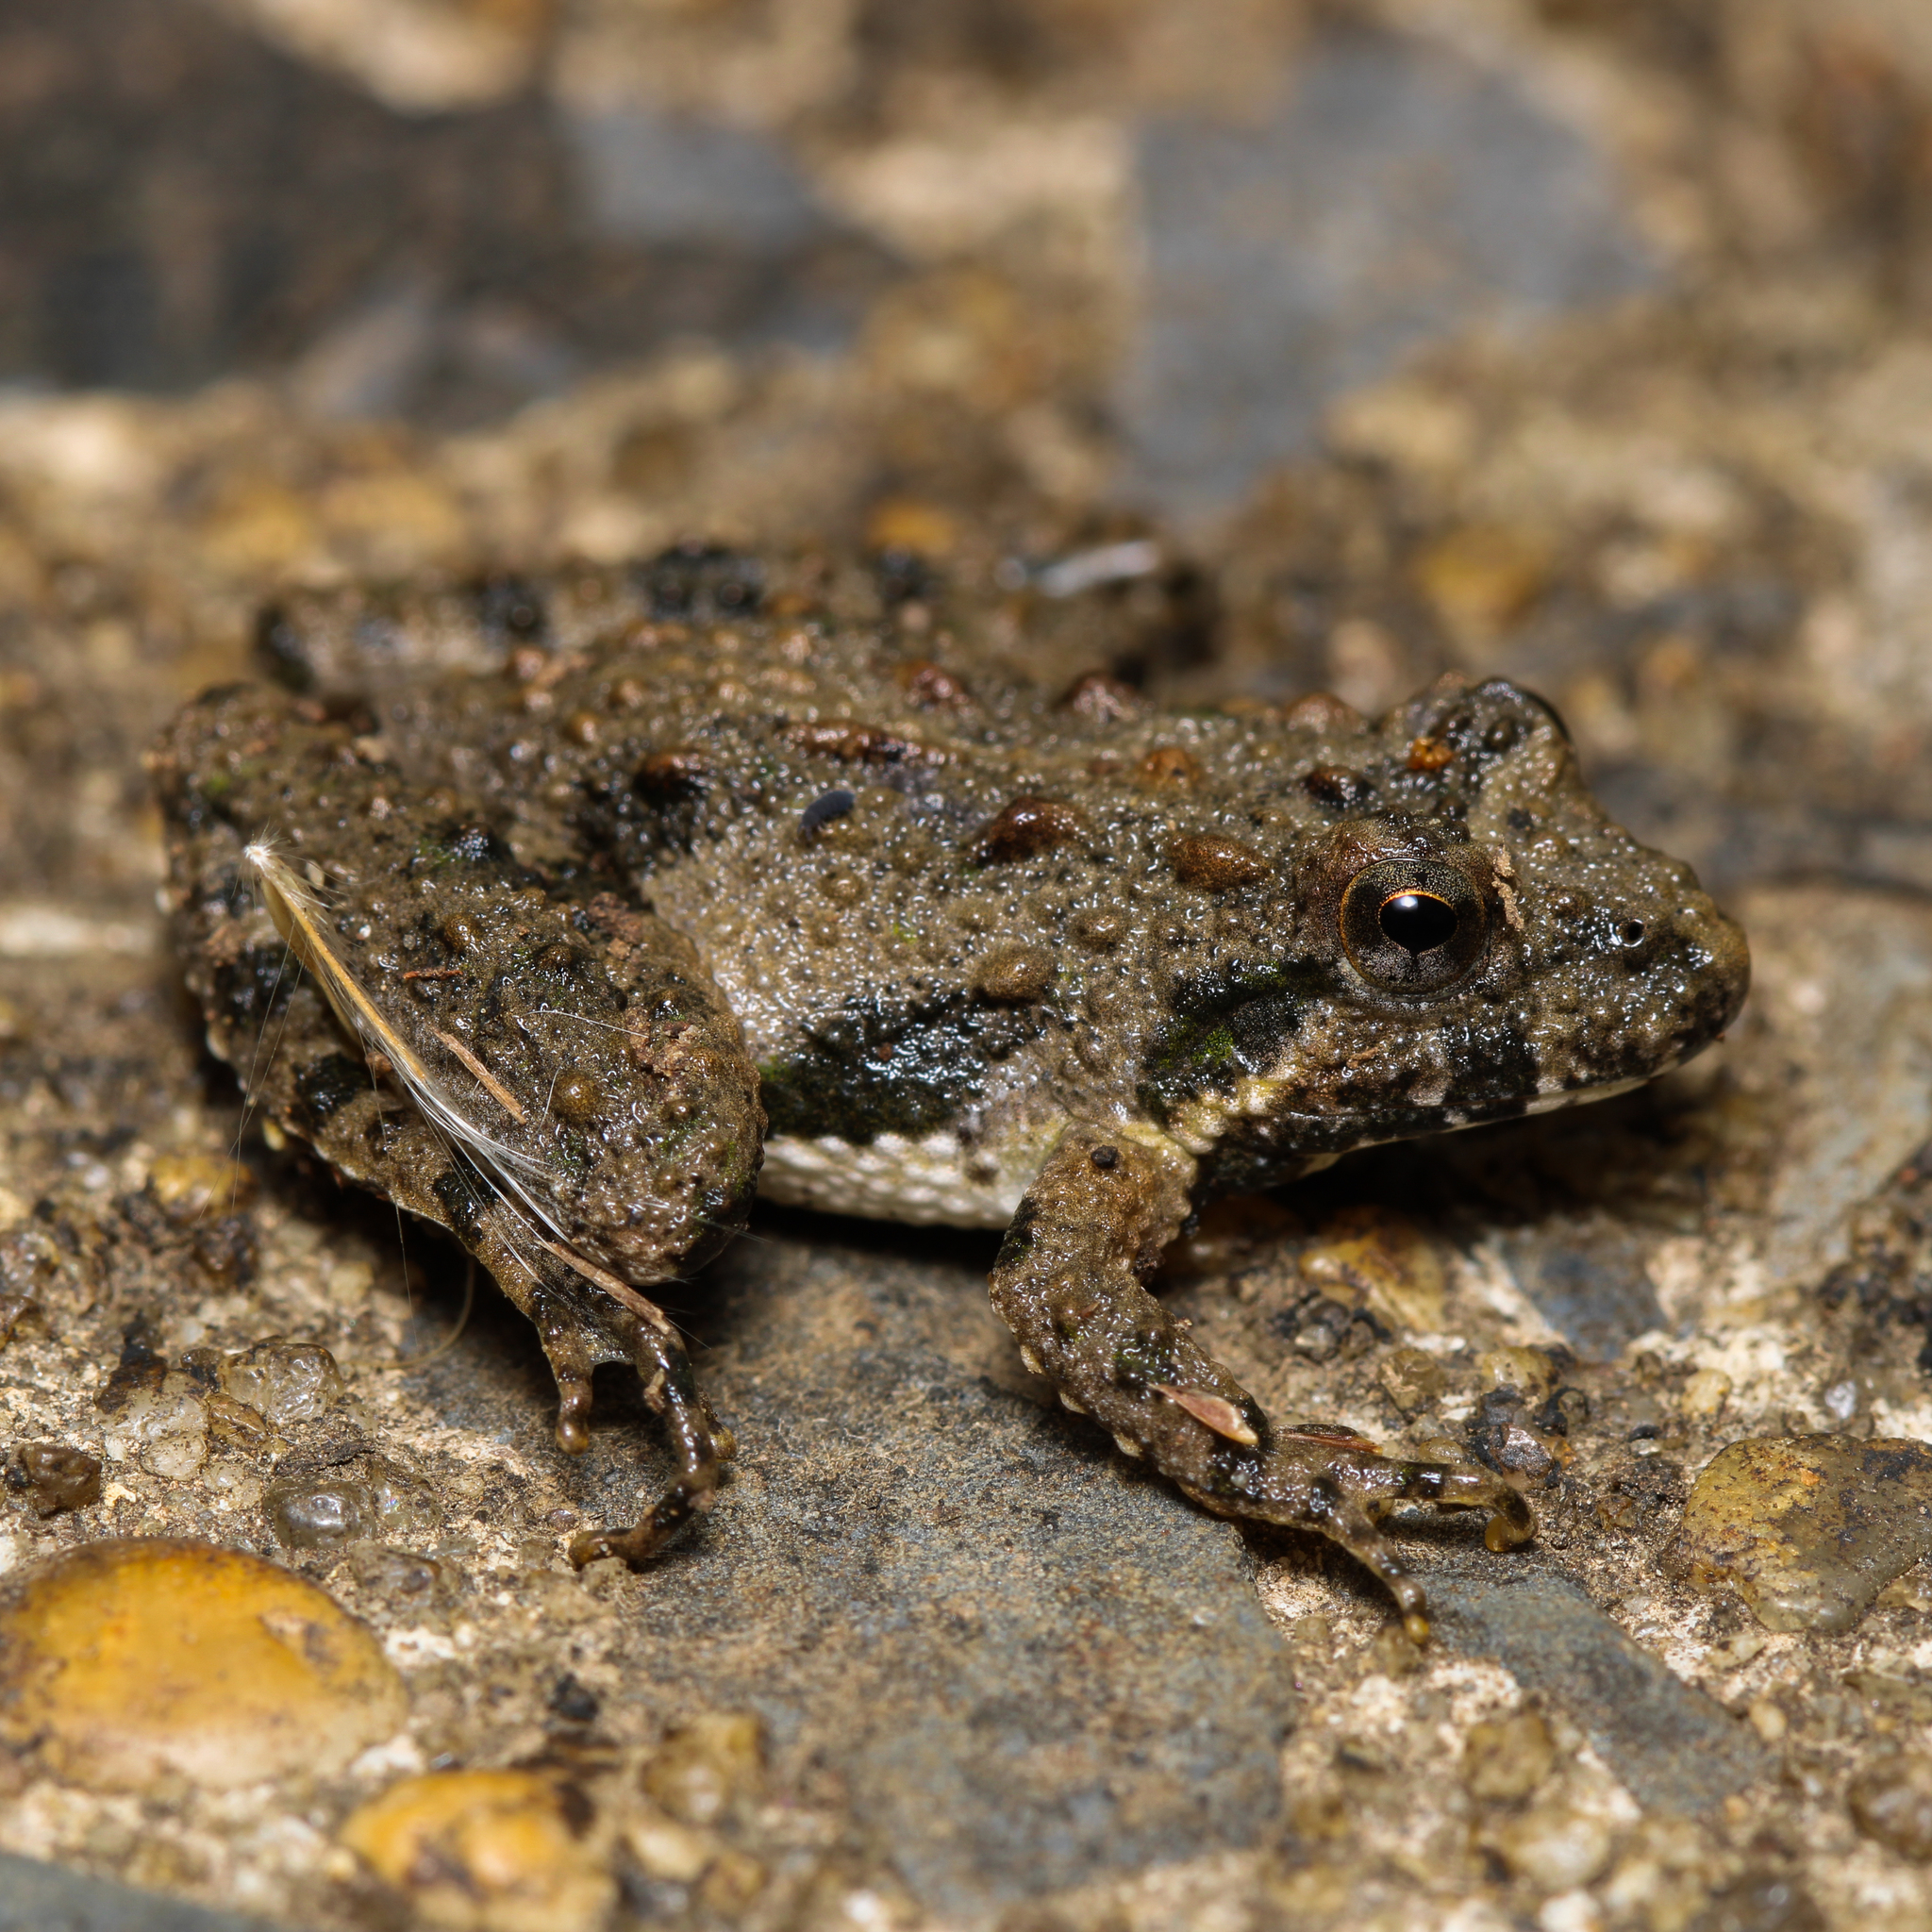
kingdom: Animalia
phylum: Chordata
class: Amphibia
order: Anura
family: Hylidae
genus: Acris
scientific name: Acris crepitans
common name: Northern cricket frog
